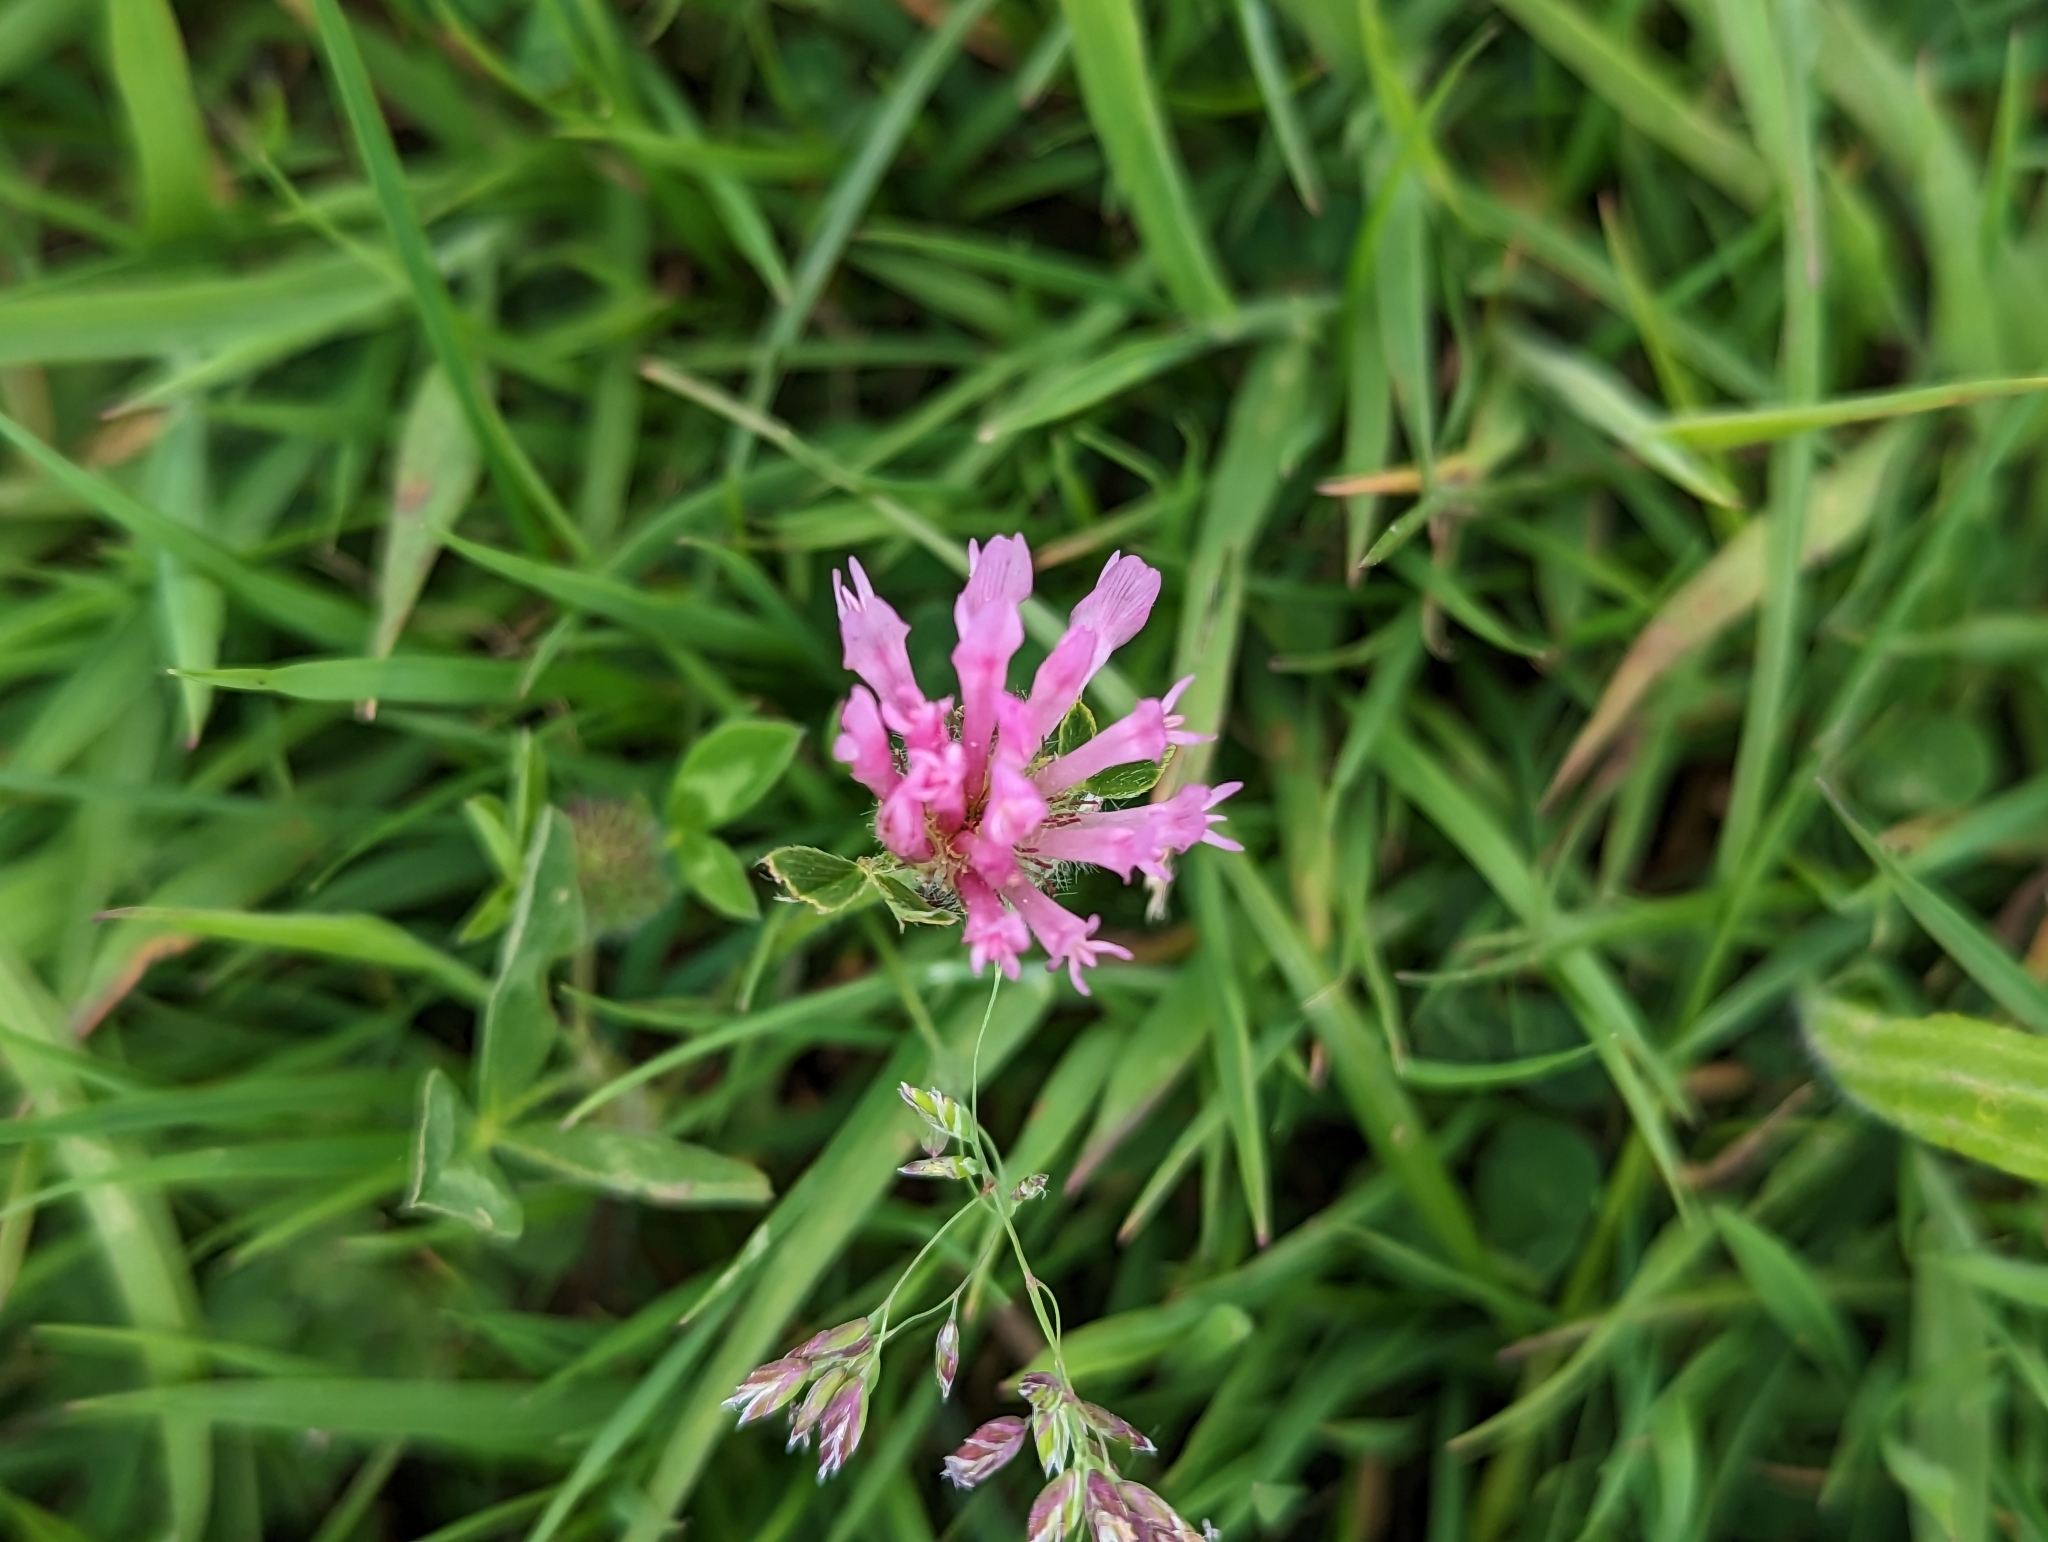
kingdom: Plantae
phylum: Tracheophyta
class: Magnoliopsida
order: Fabales
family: Fabaceae
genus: Trifolium
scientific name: Trifolium pratense
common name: Red clover
